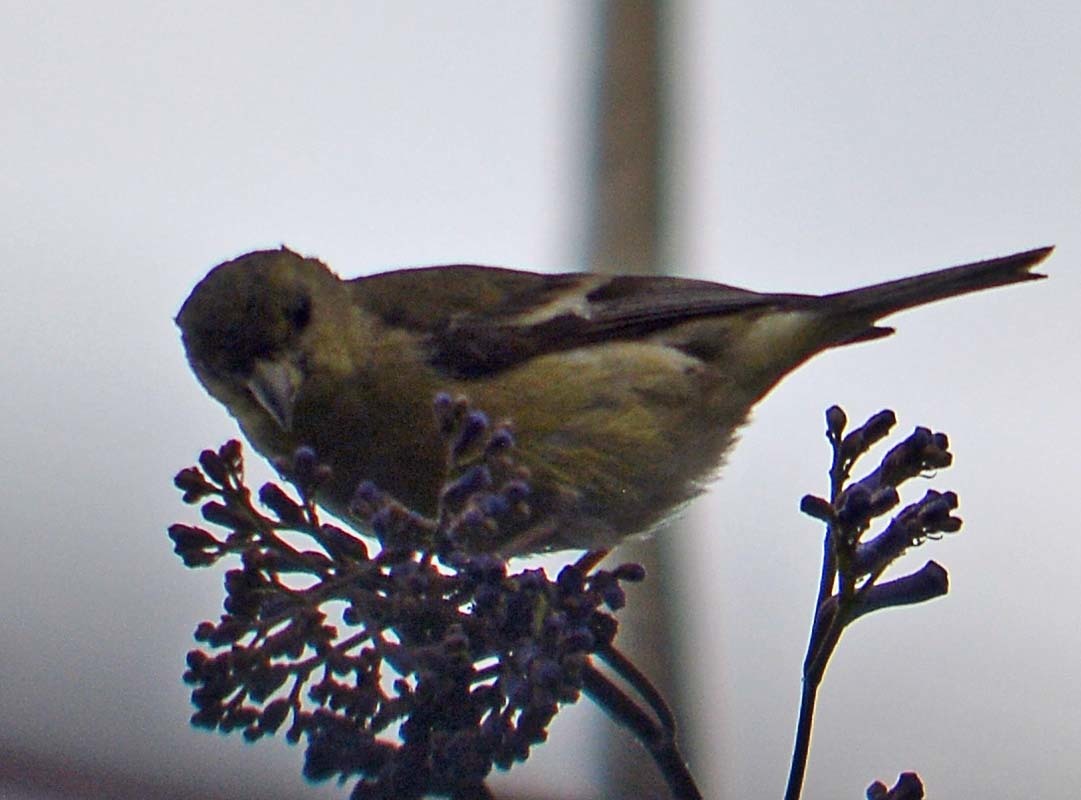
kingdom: Animalia
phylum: Chordata
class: Aves
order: Passeriformes
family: Fringillidae
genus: Spinus
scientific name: Spinus psaltria
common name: Lesser goldfinch
